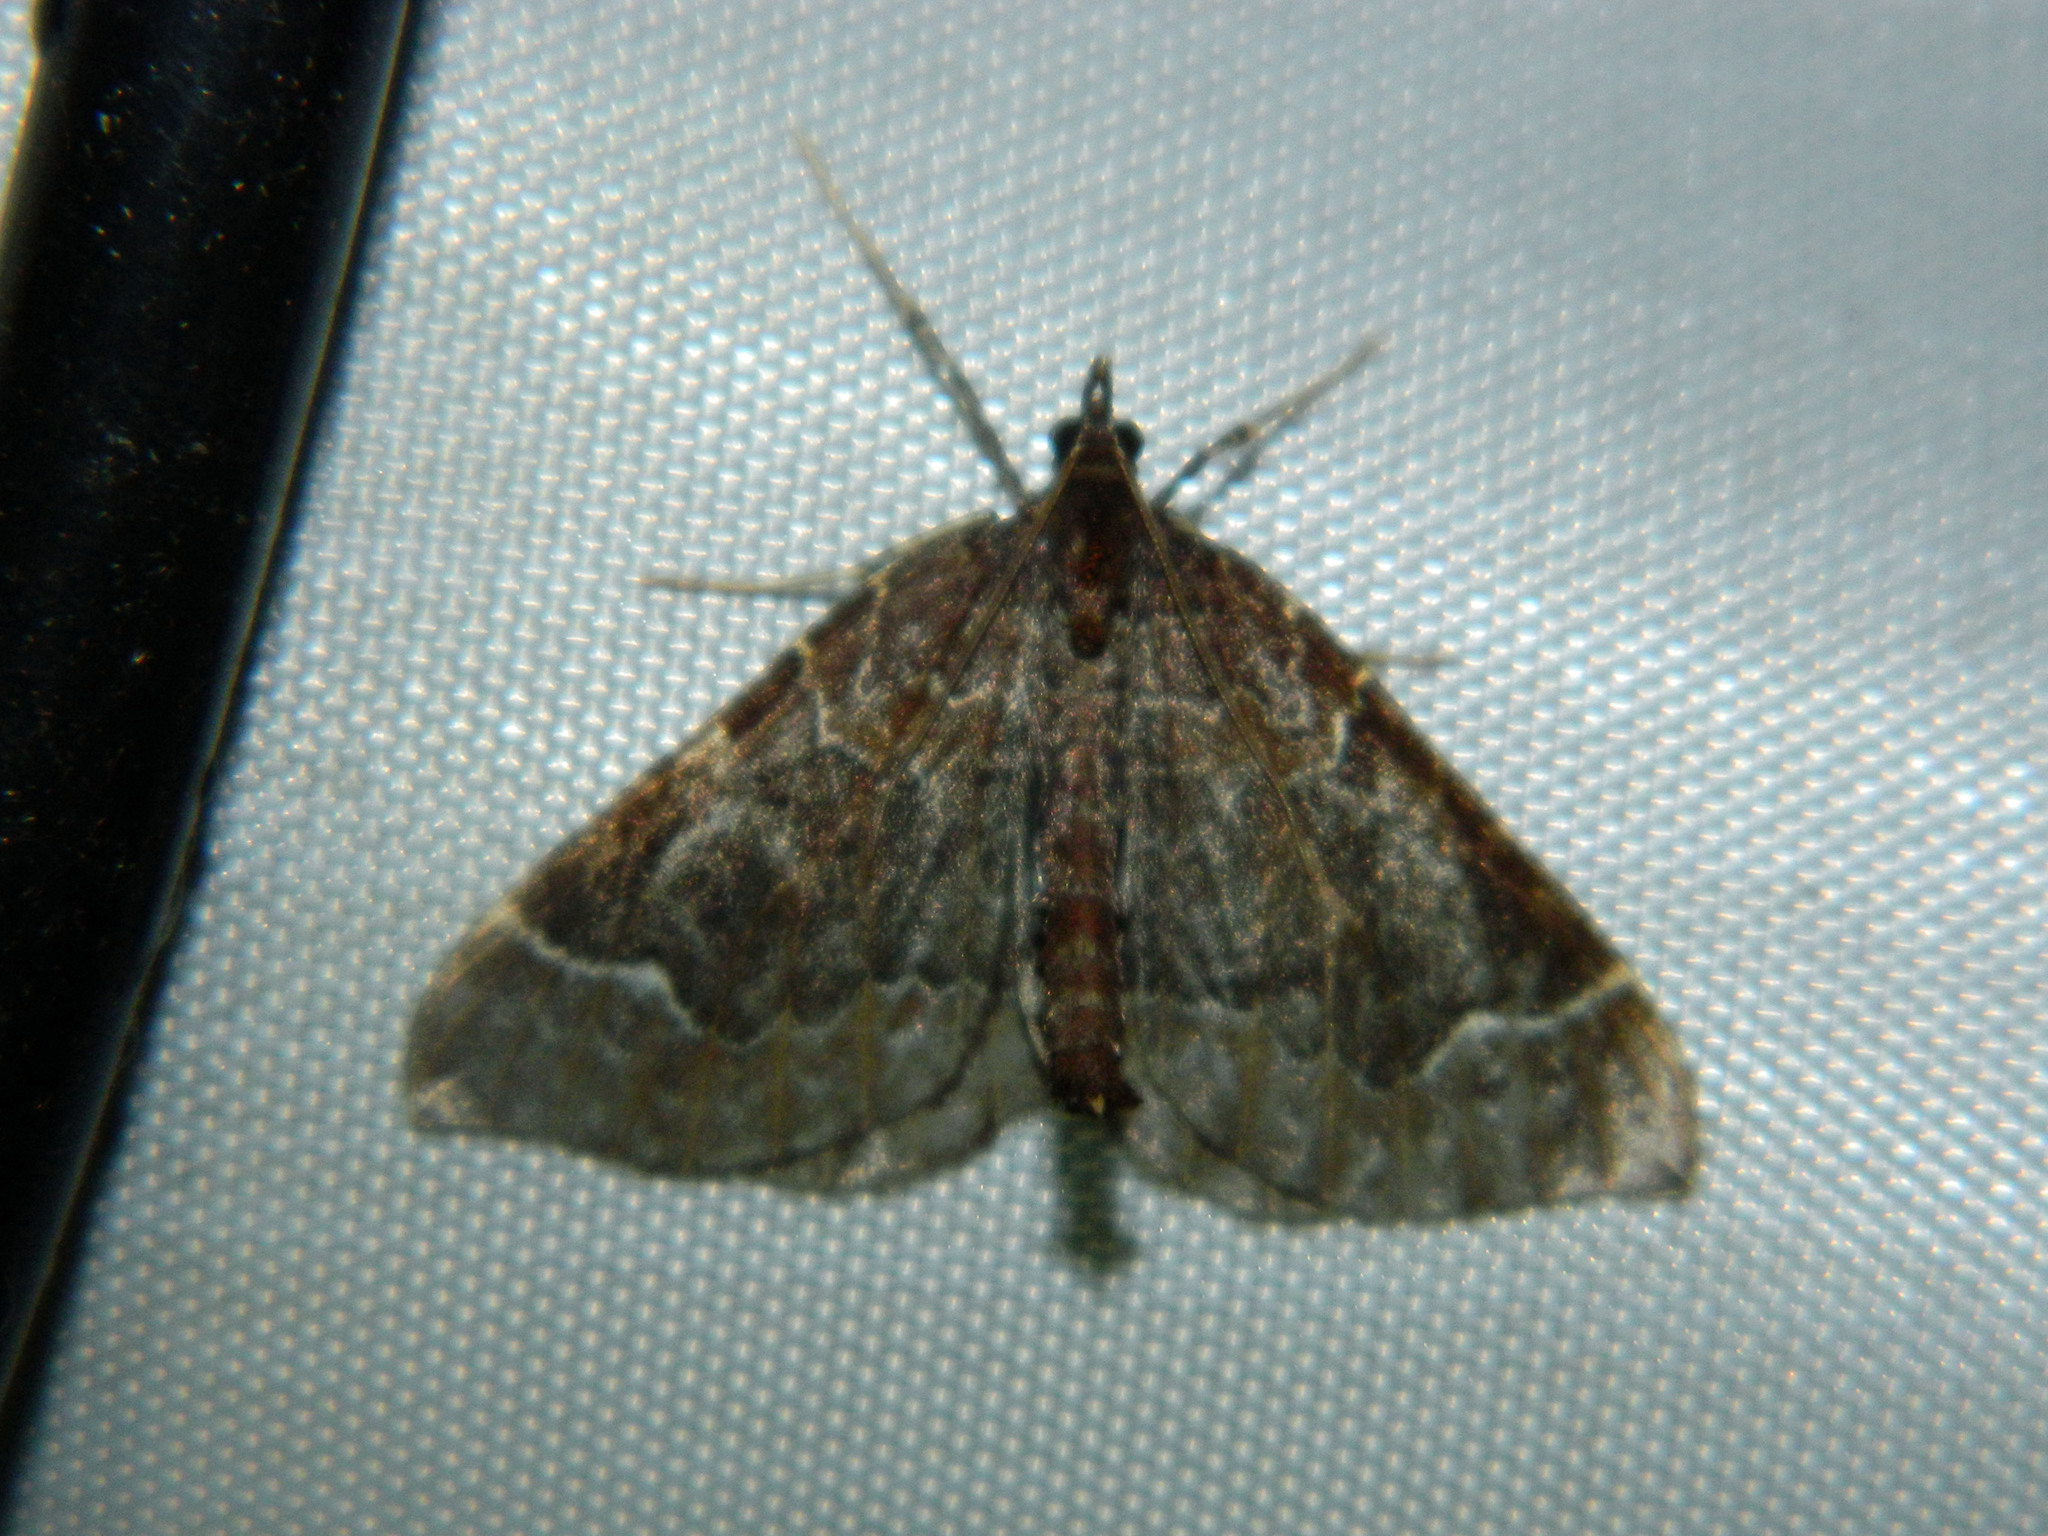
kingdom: Animalia
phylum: Arthropoda
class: Insecta
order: Lepidoptera
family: Geometridae
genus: Eulithis
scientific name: Eulithis flavibrunneata
